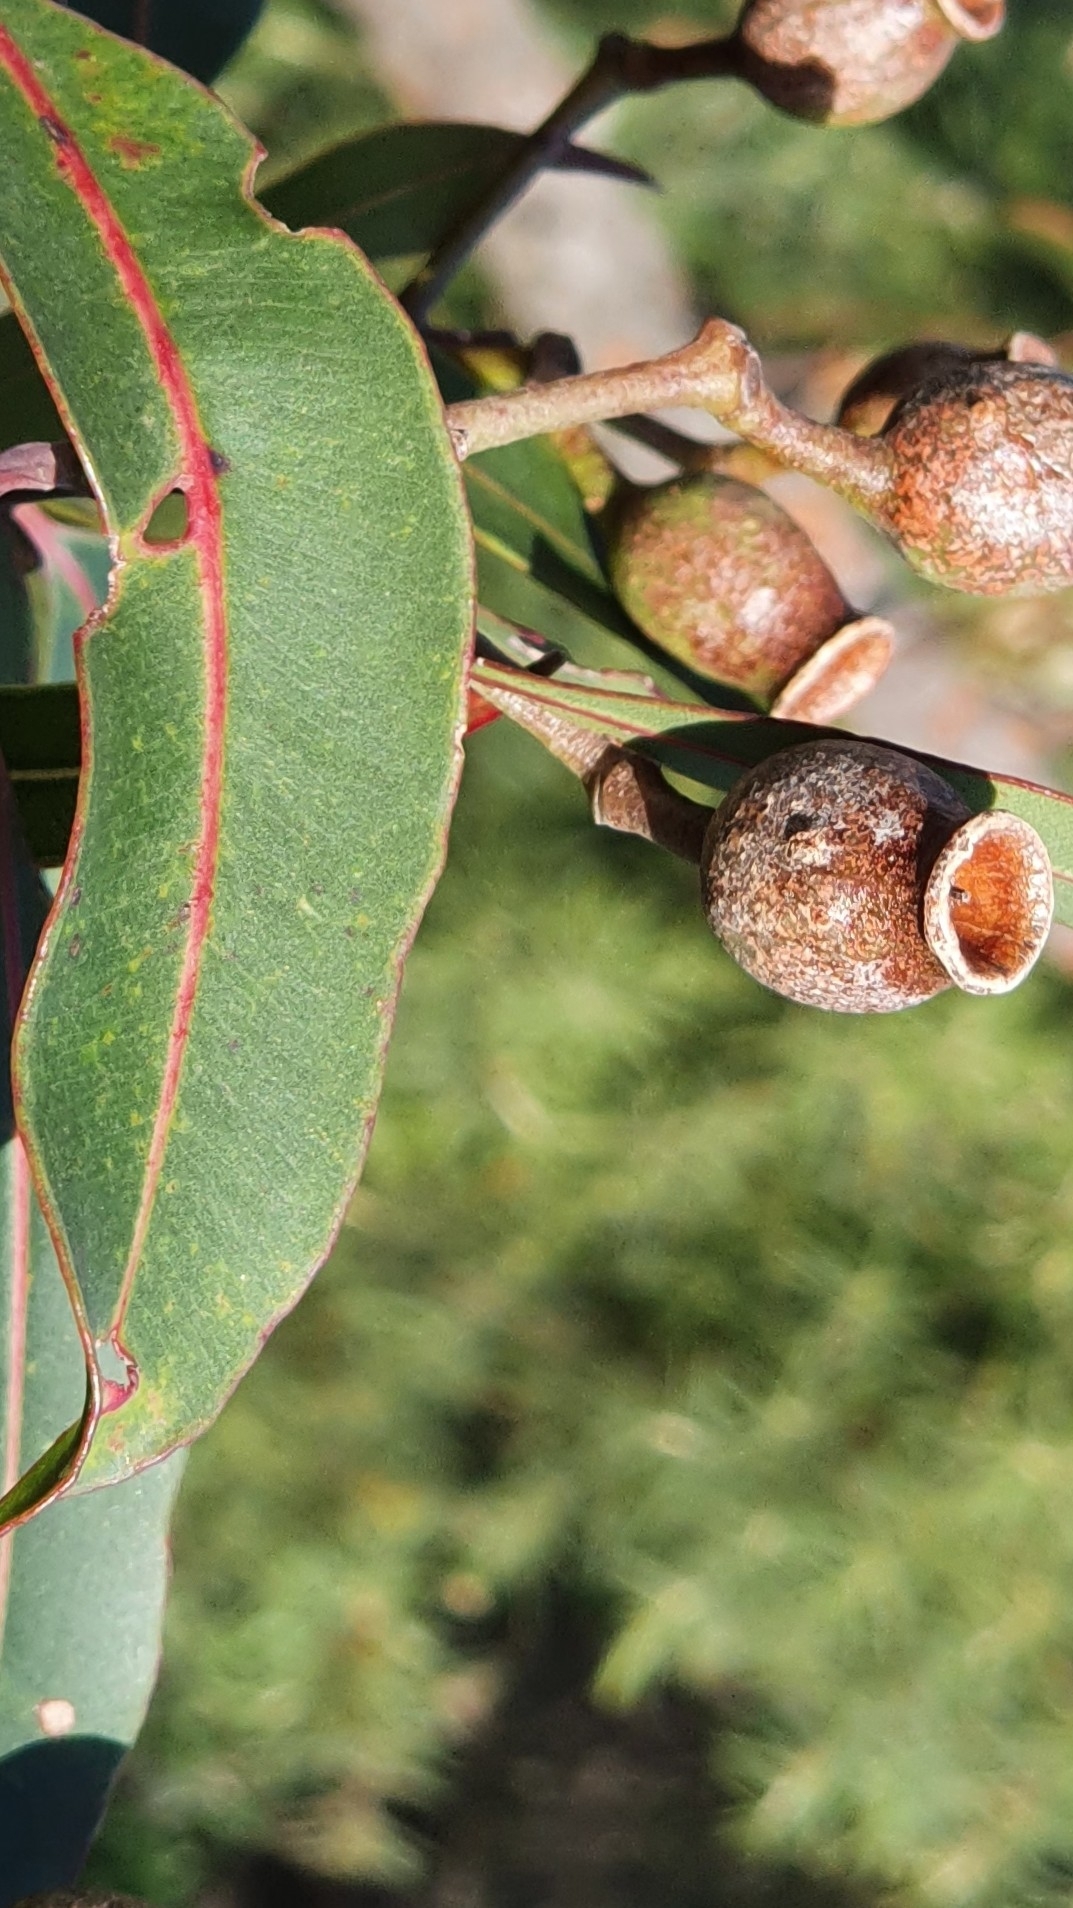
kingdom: Plantae
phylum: Tracheophyta
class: Magnoliopsida
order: Myrtales
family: Myrtaceae
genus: Corymbia
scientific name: Corymbia gummifera
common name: Red bloodwood
